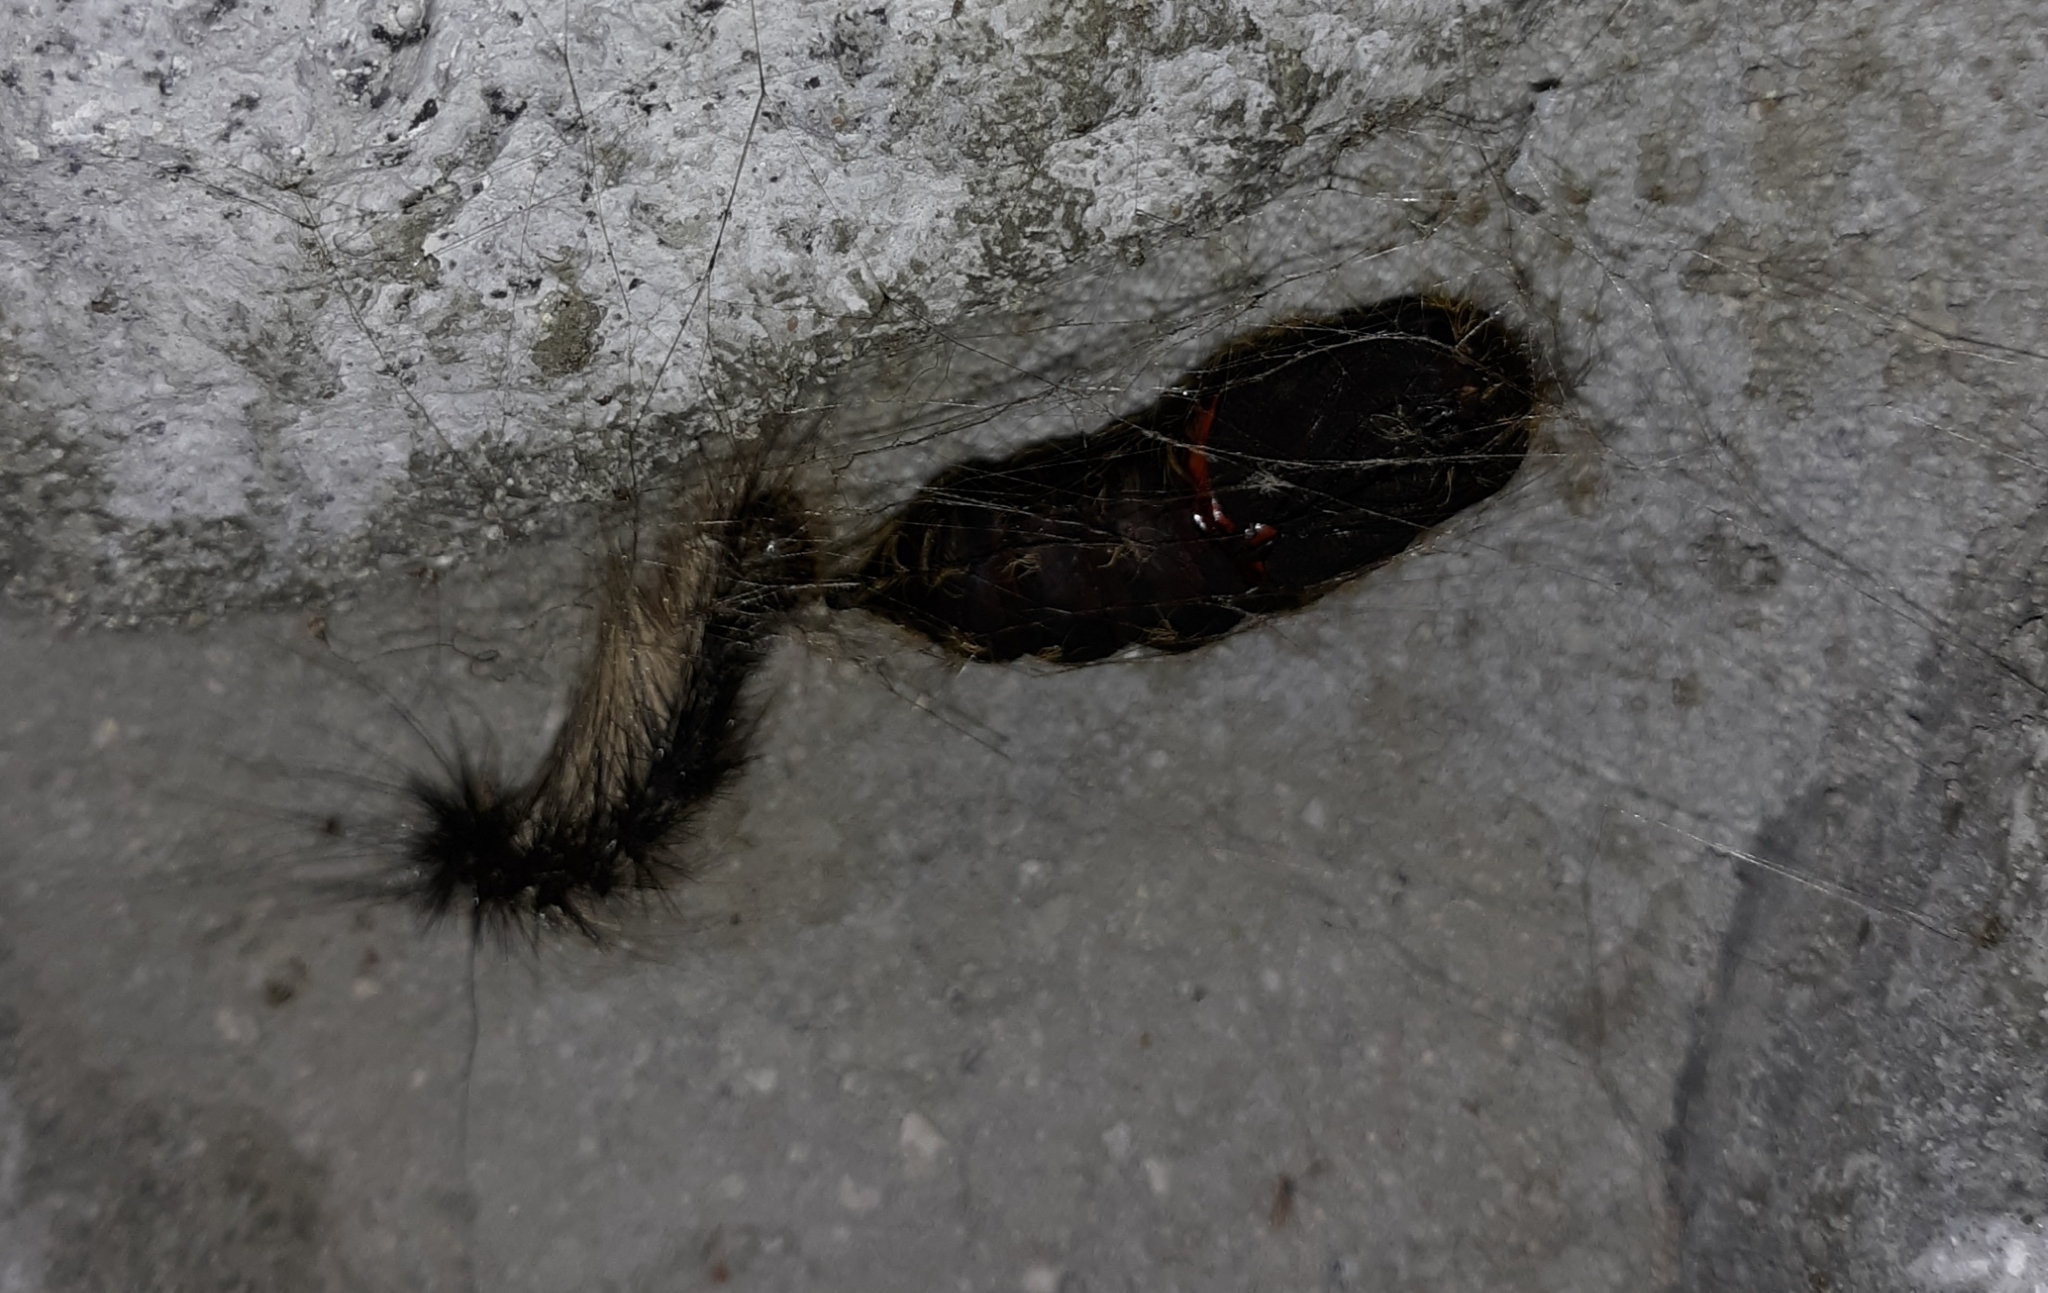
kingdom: Animalia
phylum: Arthropoda
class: Insecta
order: Lepidoptera
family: Erebidae
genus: Lymantria
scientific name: Lymantria dispar
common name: Gypsy moth
